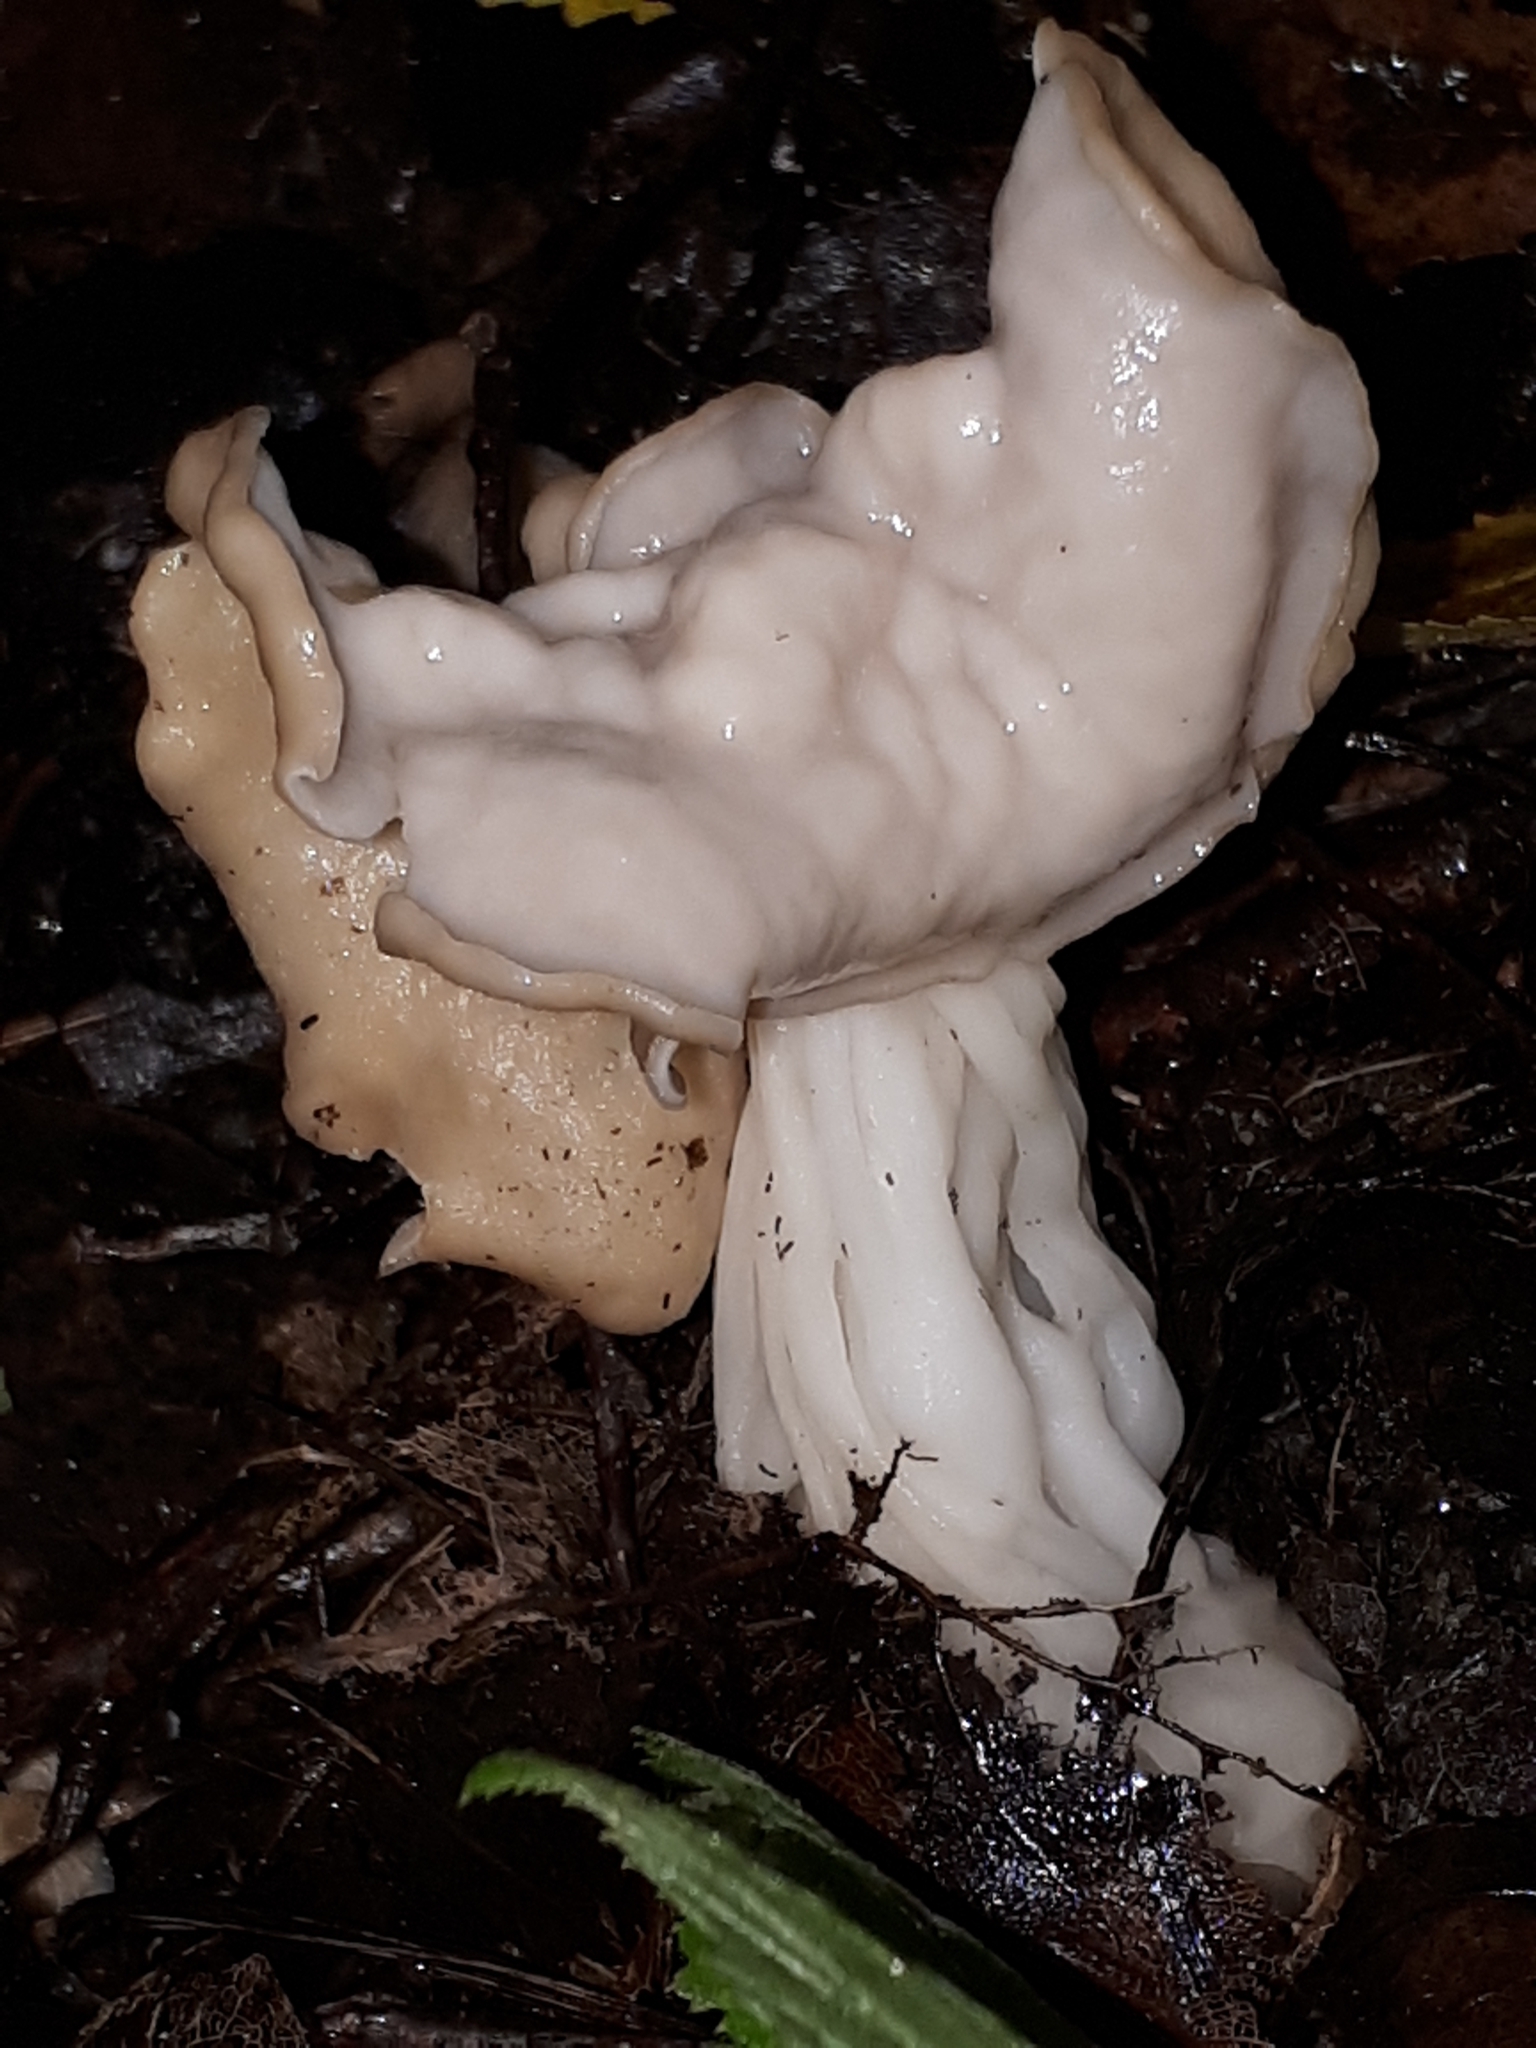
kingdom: Fungi
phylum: Ascomycota
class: Pezizomycetes
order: Pezizales
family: Helvellaceae
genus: Helvella
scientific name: Helvella crispa
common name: White saddle
